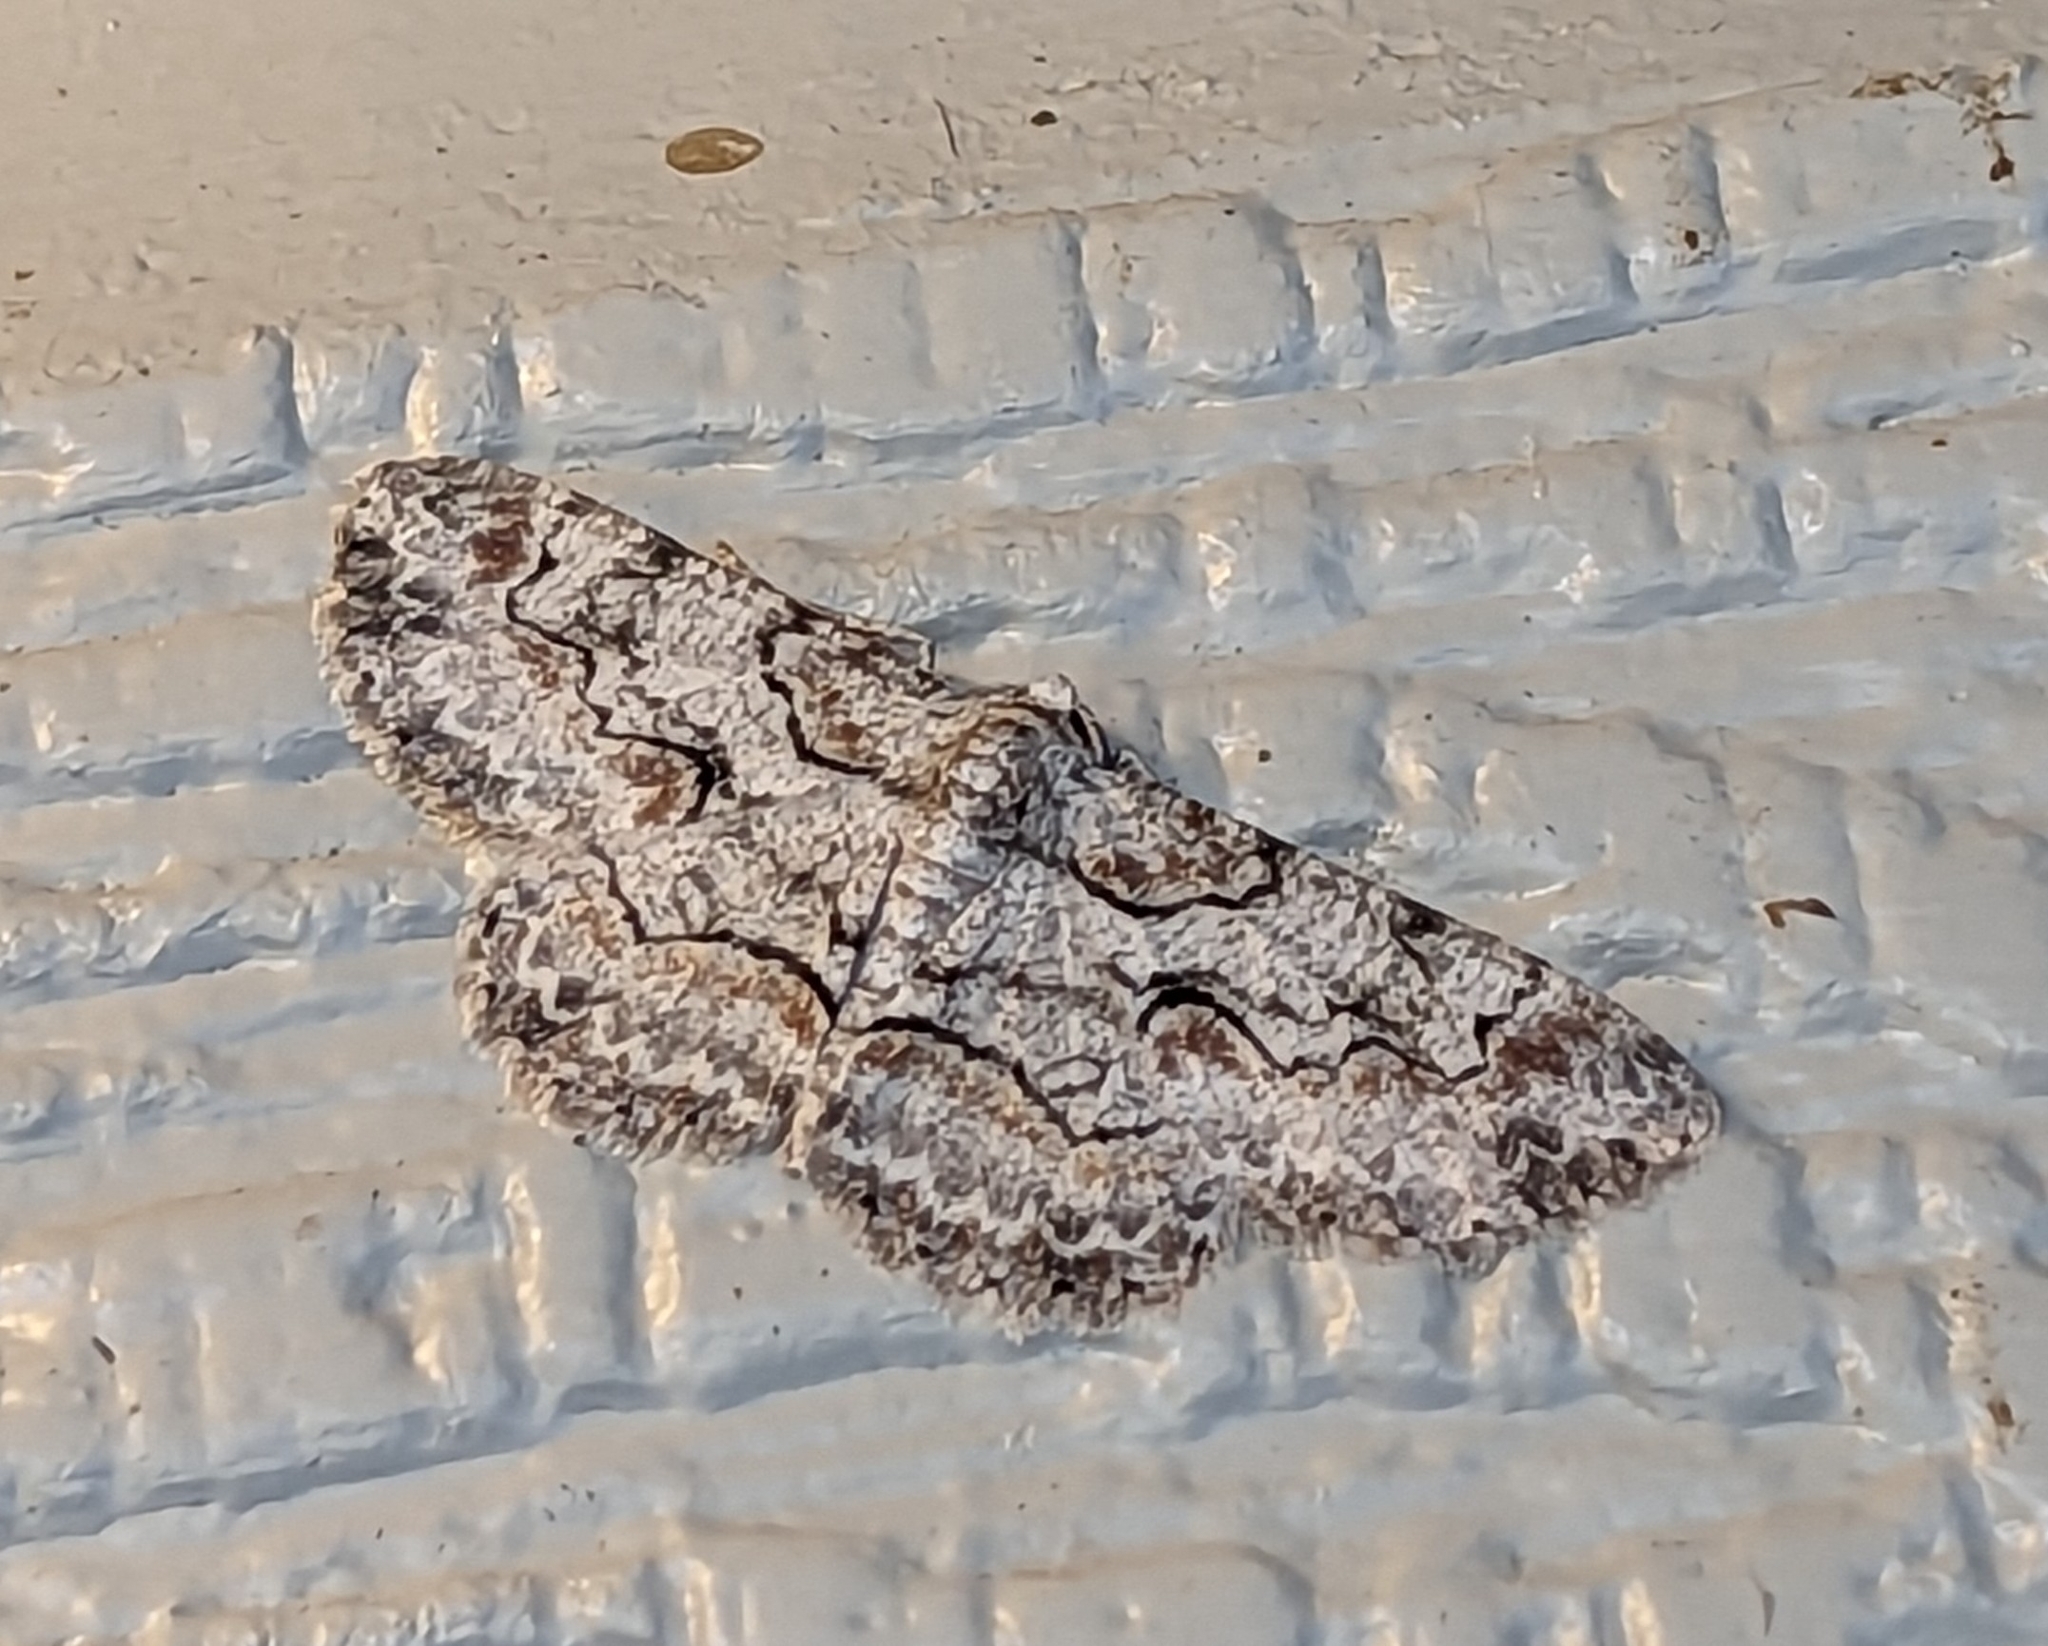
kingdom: Animalia
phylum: Arthropoda
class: Insecta
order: Lepidoptera
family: Geometridae
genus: Iridopsis
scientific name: Iridopsis defectaria
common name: Brown-shaded gray
